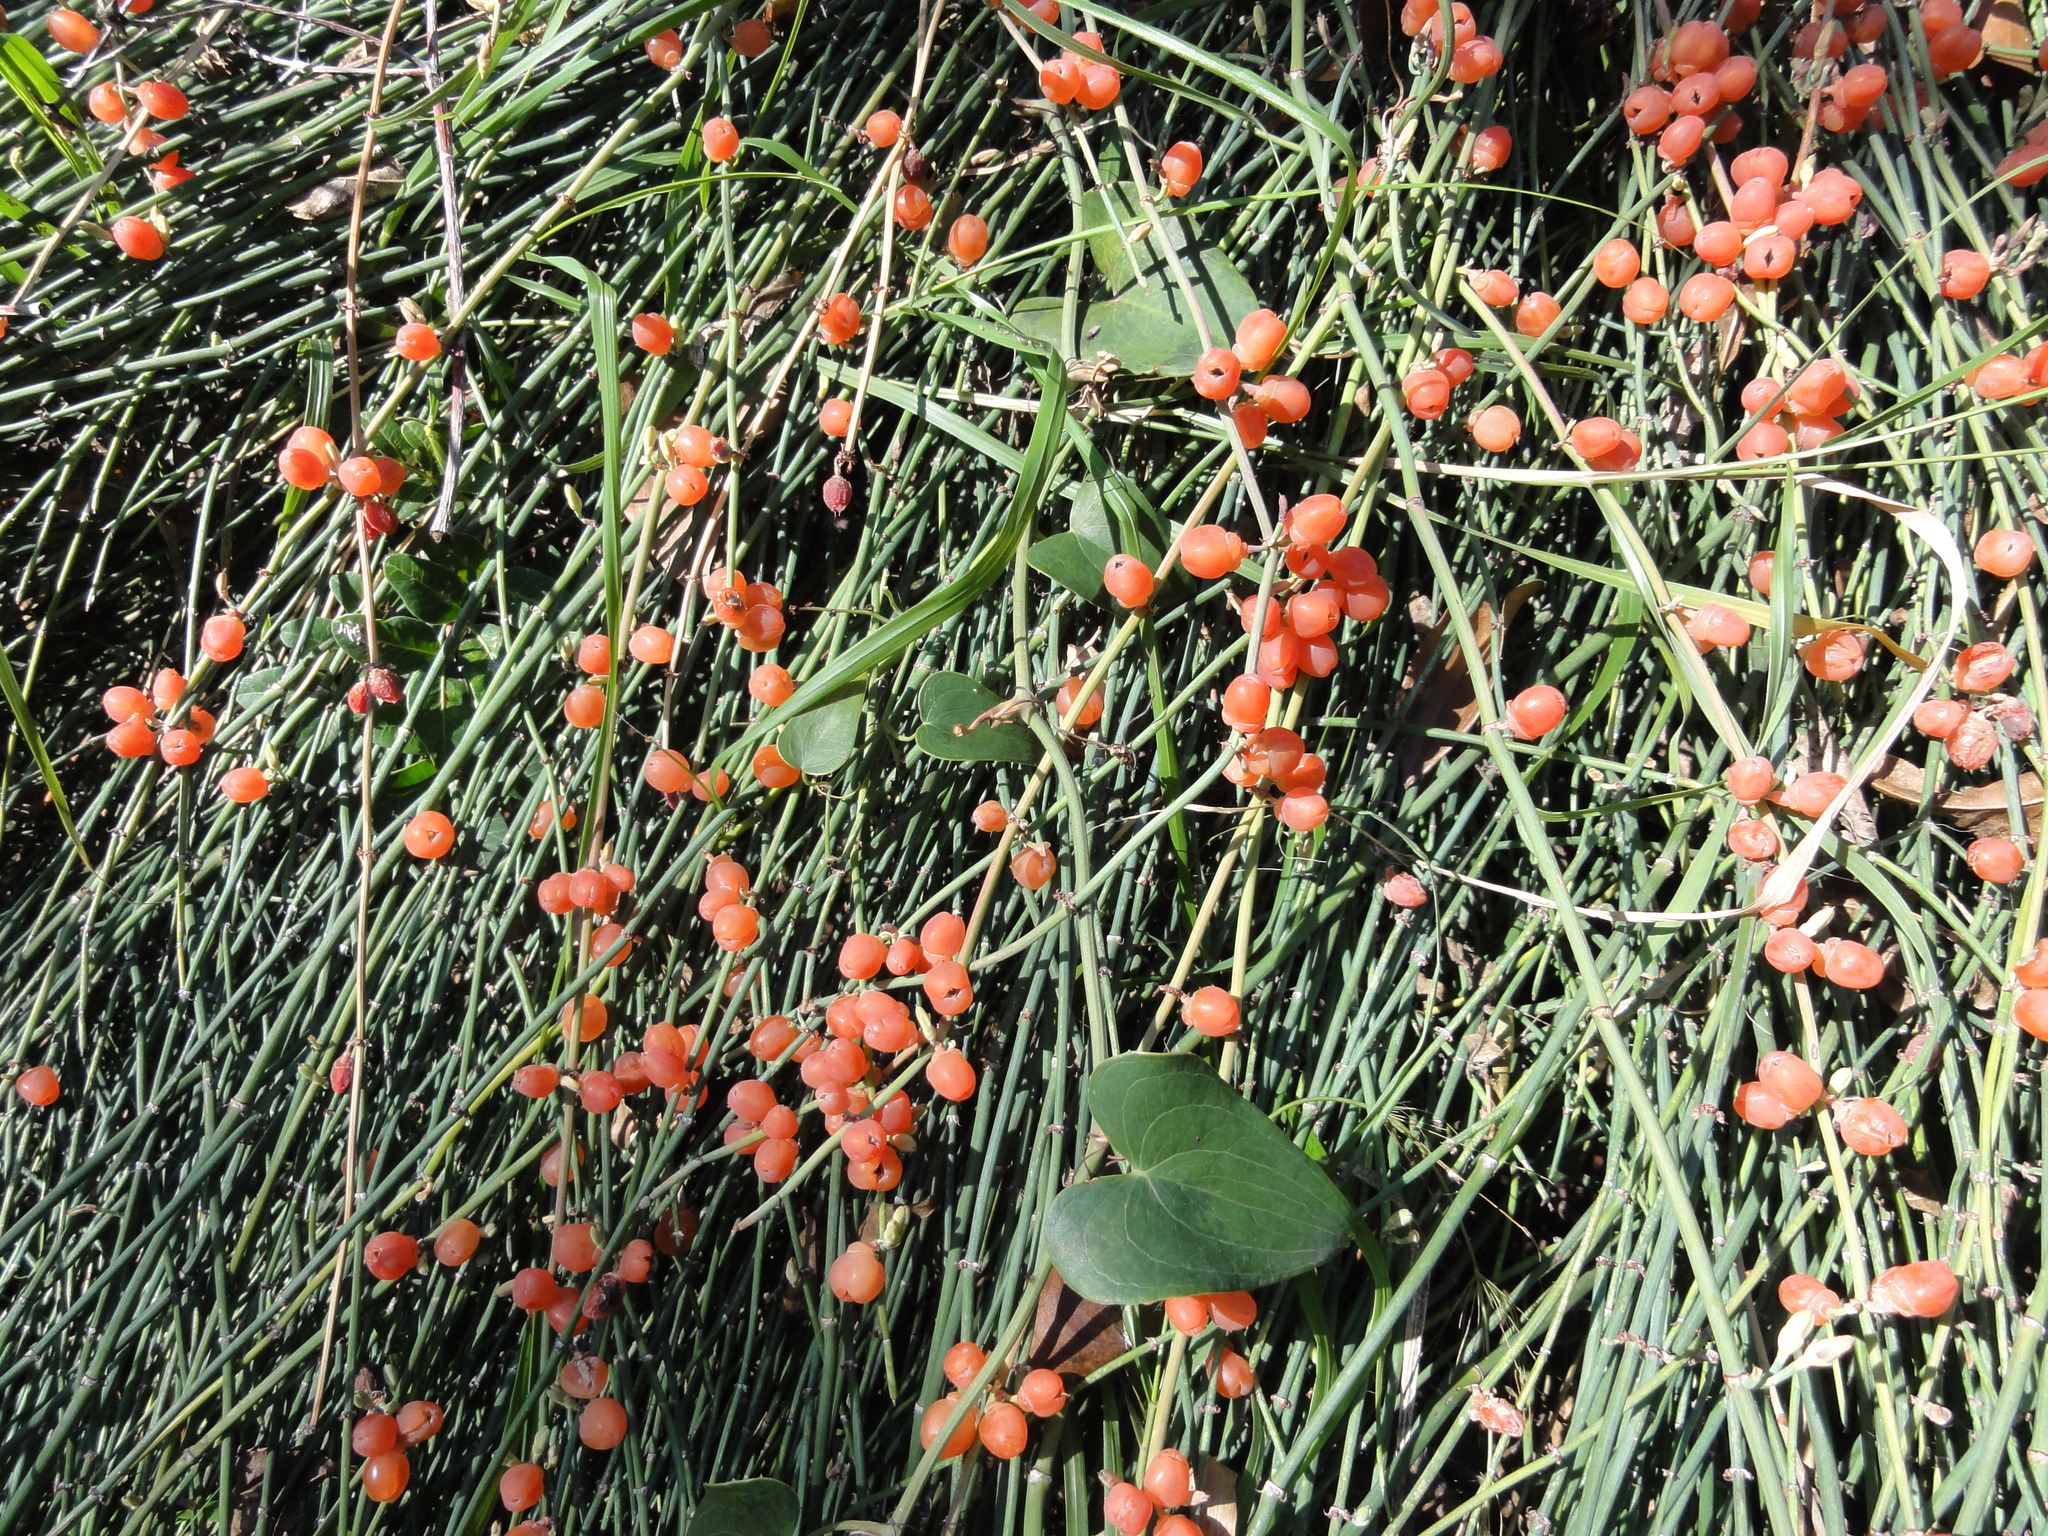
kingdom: Plantae
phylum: Tracheophyta
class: Gnetopsida
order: Ephedrales
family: Ephedraceae
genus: Ephedra
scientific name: Ephedra foeminea
